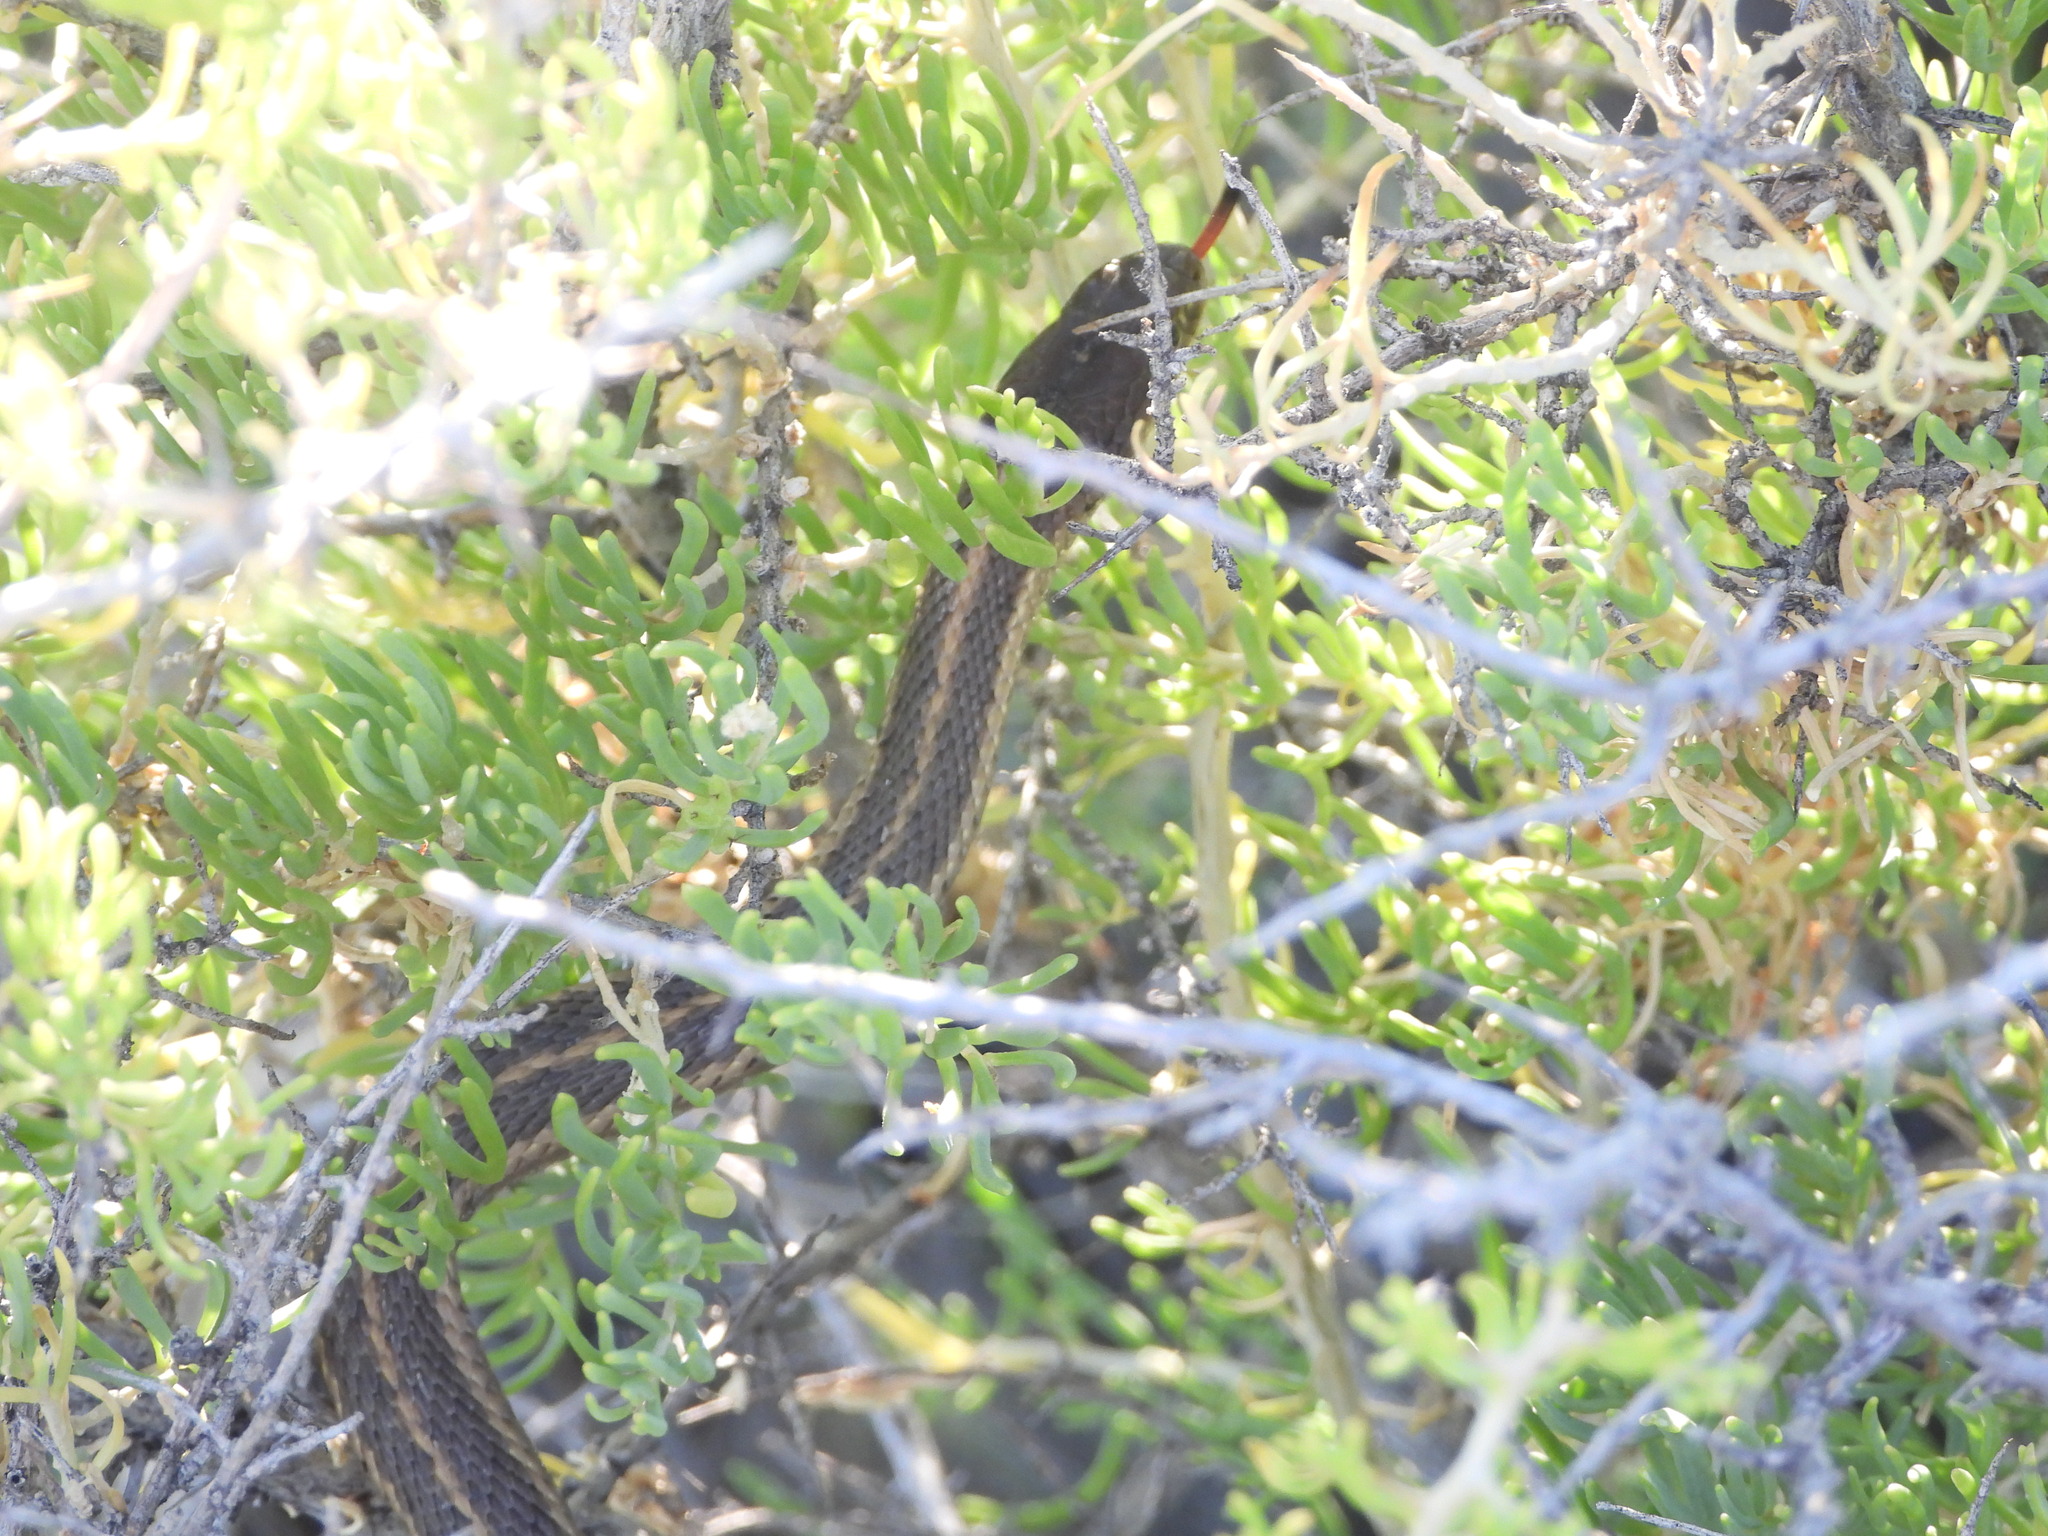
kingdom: Animalia
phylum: Chordata
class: Squamata
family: Colubridae
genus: Thamnophis
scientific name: Thamnophis elegans
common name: Western terrestrial garter snake
